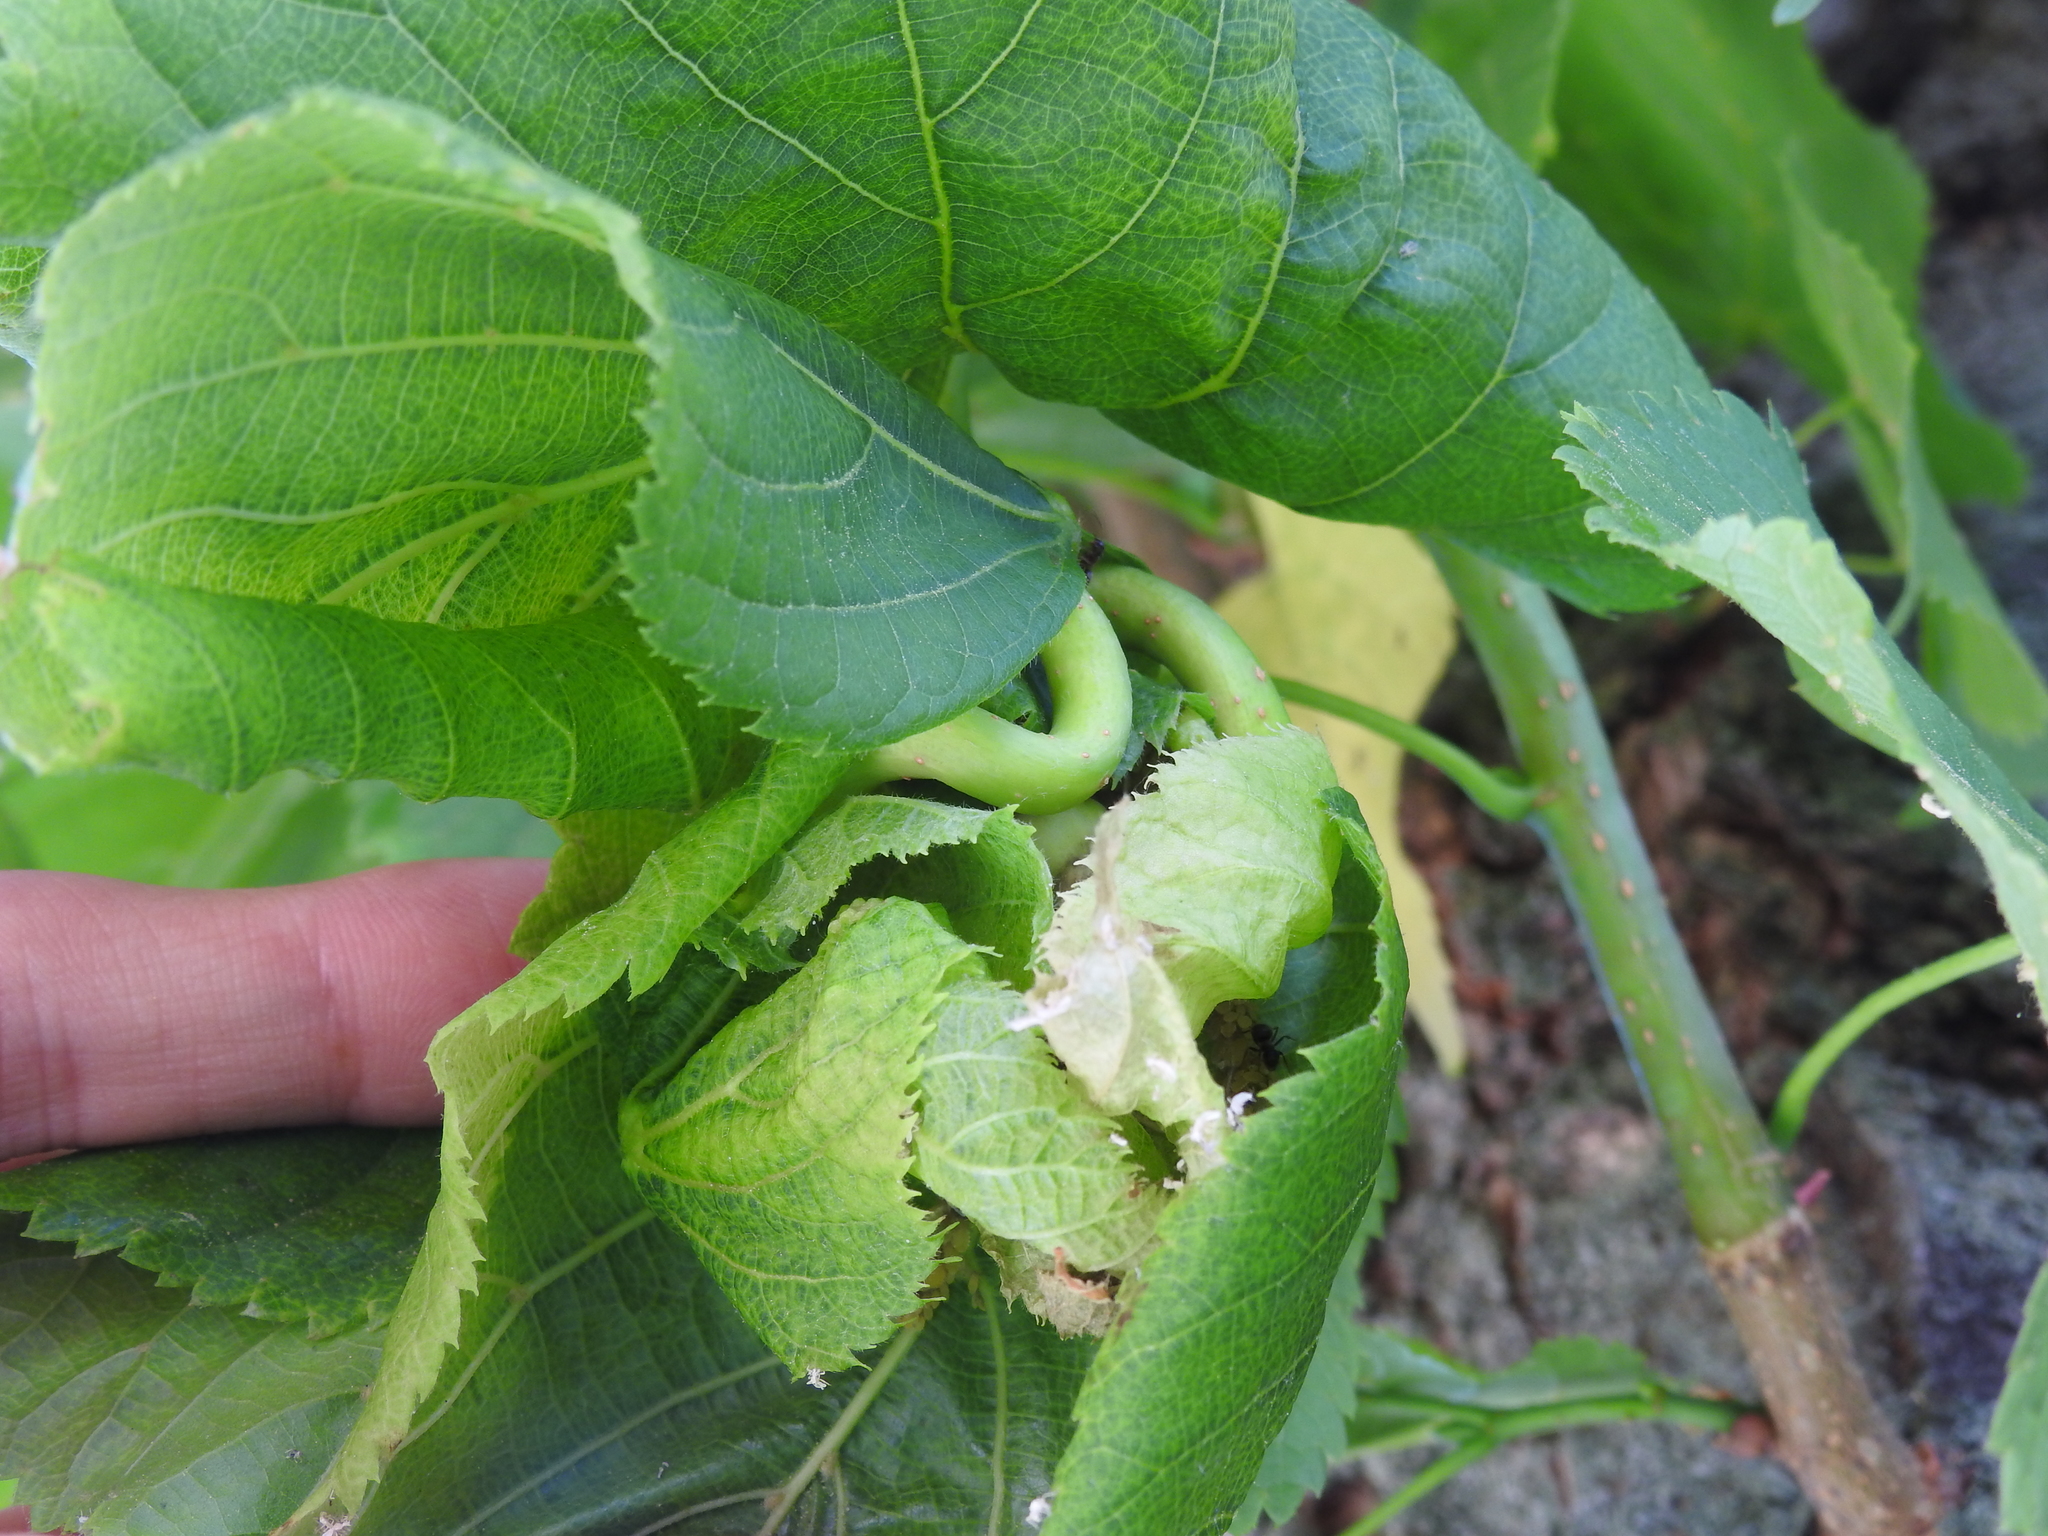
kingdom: Animalia
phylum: Arthropoda
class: Insecta
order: Hemiptera
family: Aphididae
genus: Patchiella
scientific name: Patchiella reaumuri
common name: Taro root aphid
